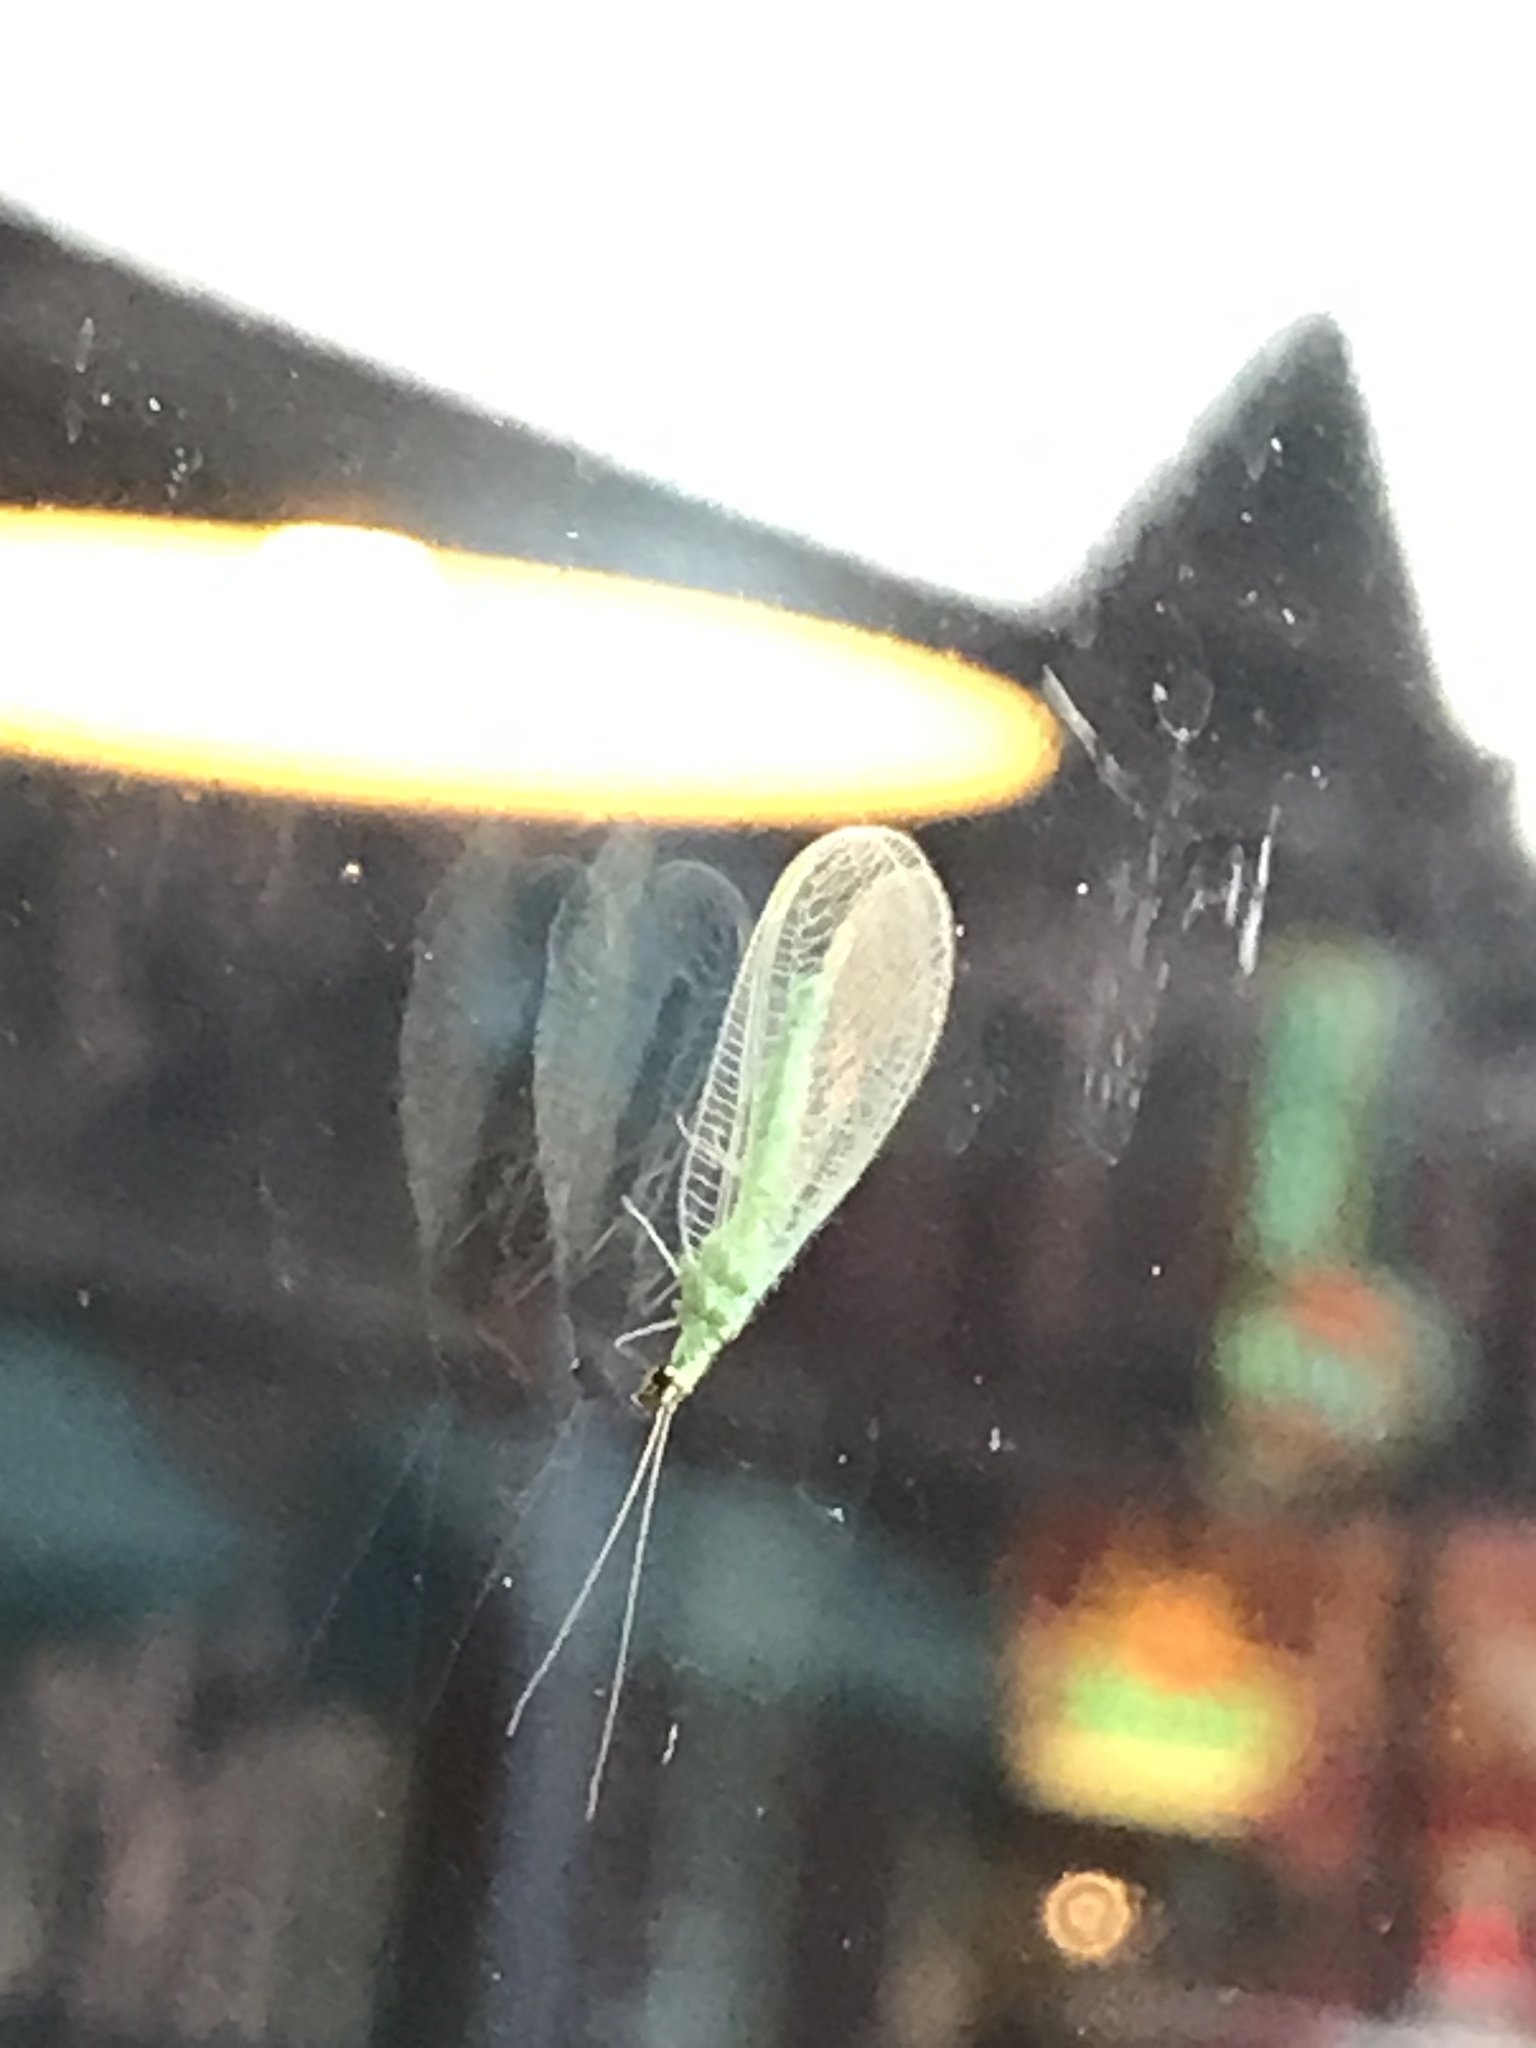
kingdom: Animalia
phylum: Arthropoda
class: Insecta
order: Neuroptera
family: Chrysopidae
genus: Chrysopa
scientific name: Chrysopa oculata
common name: Golden-eyed lacewing
